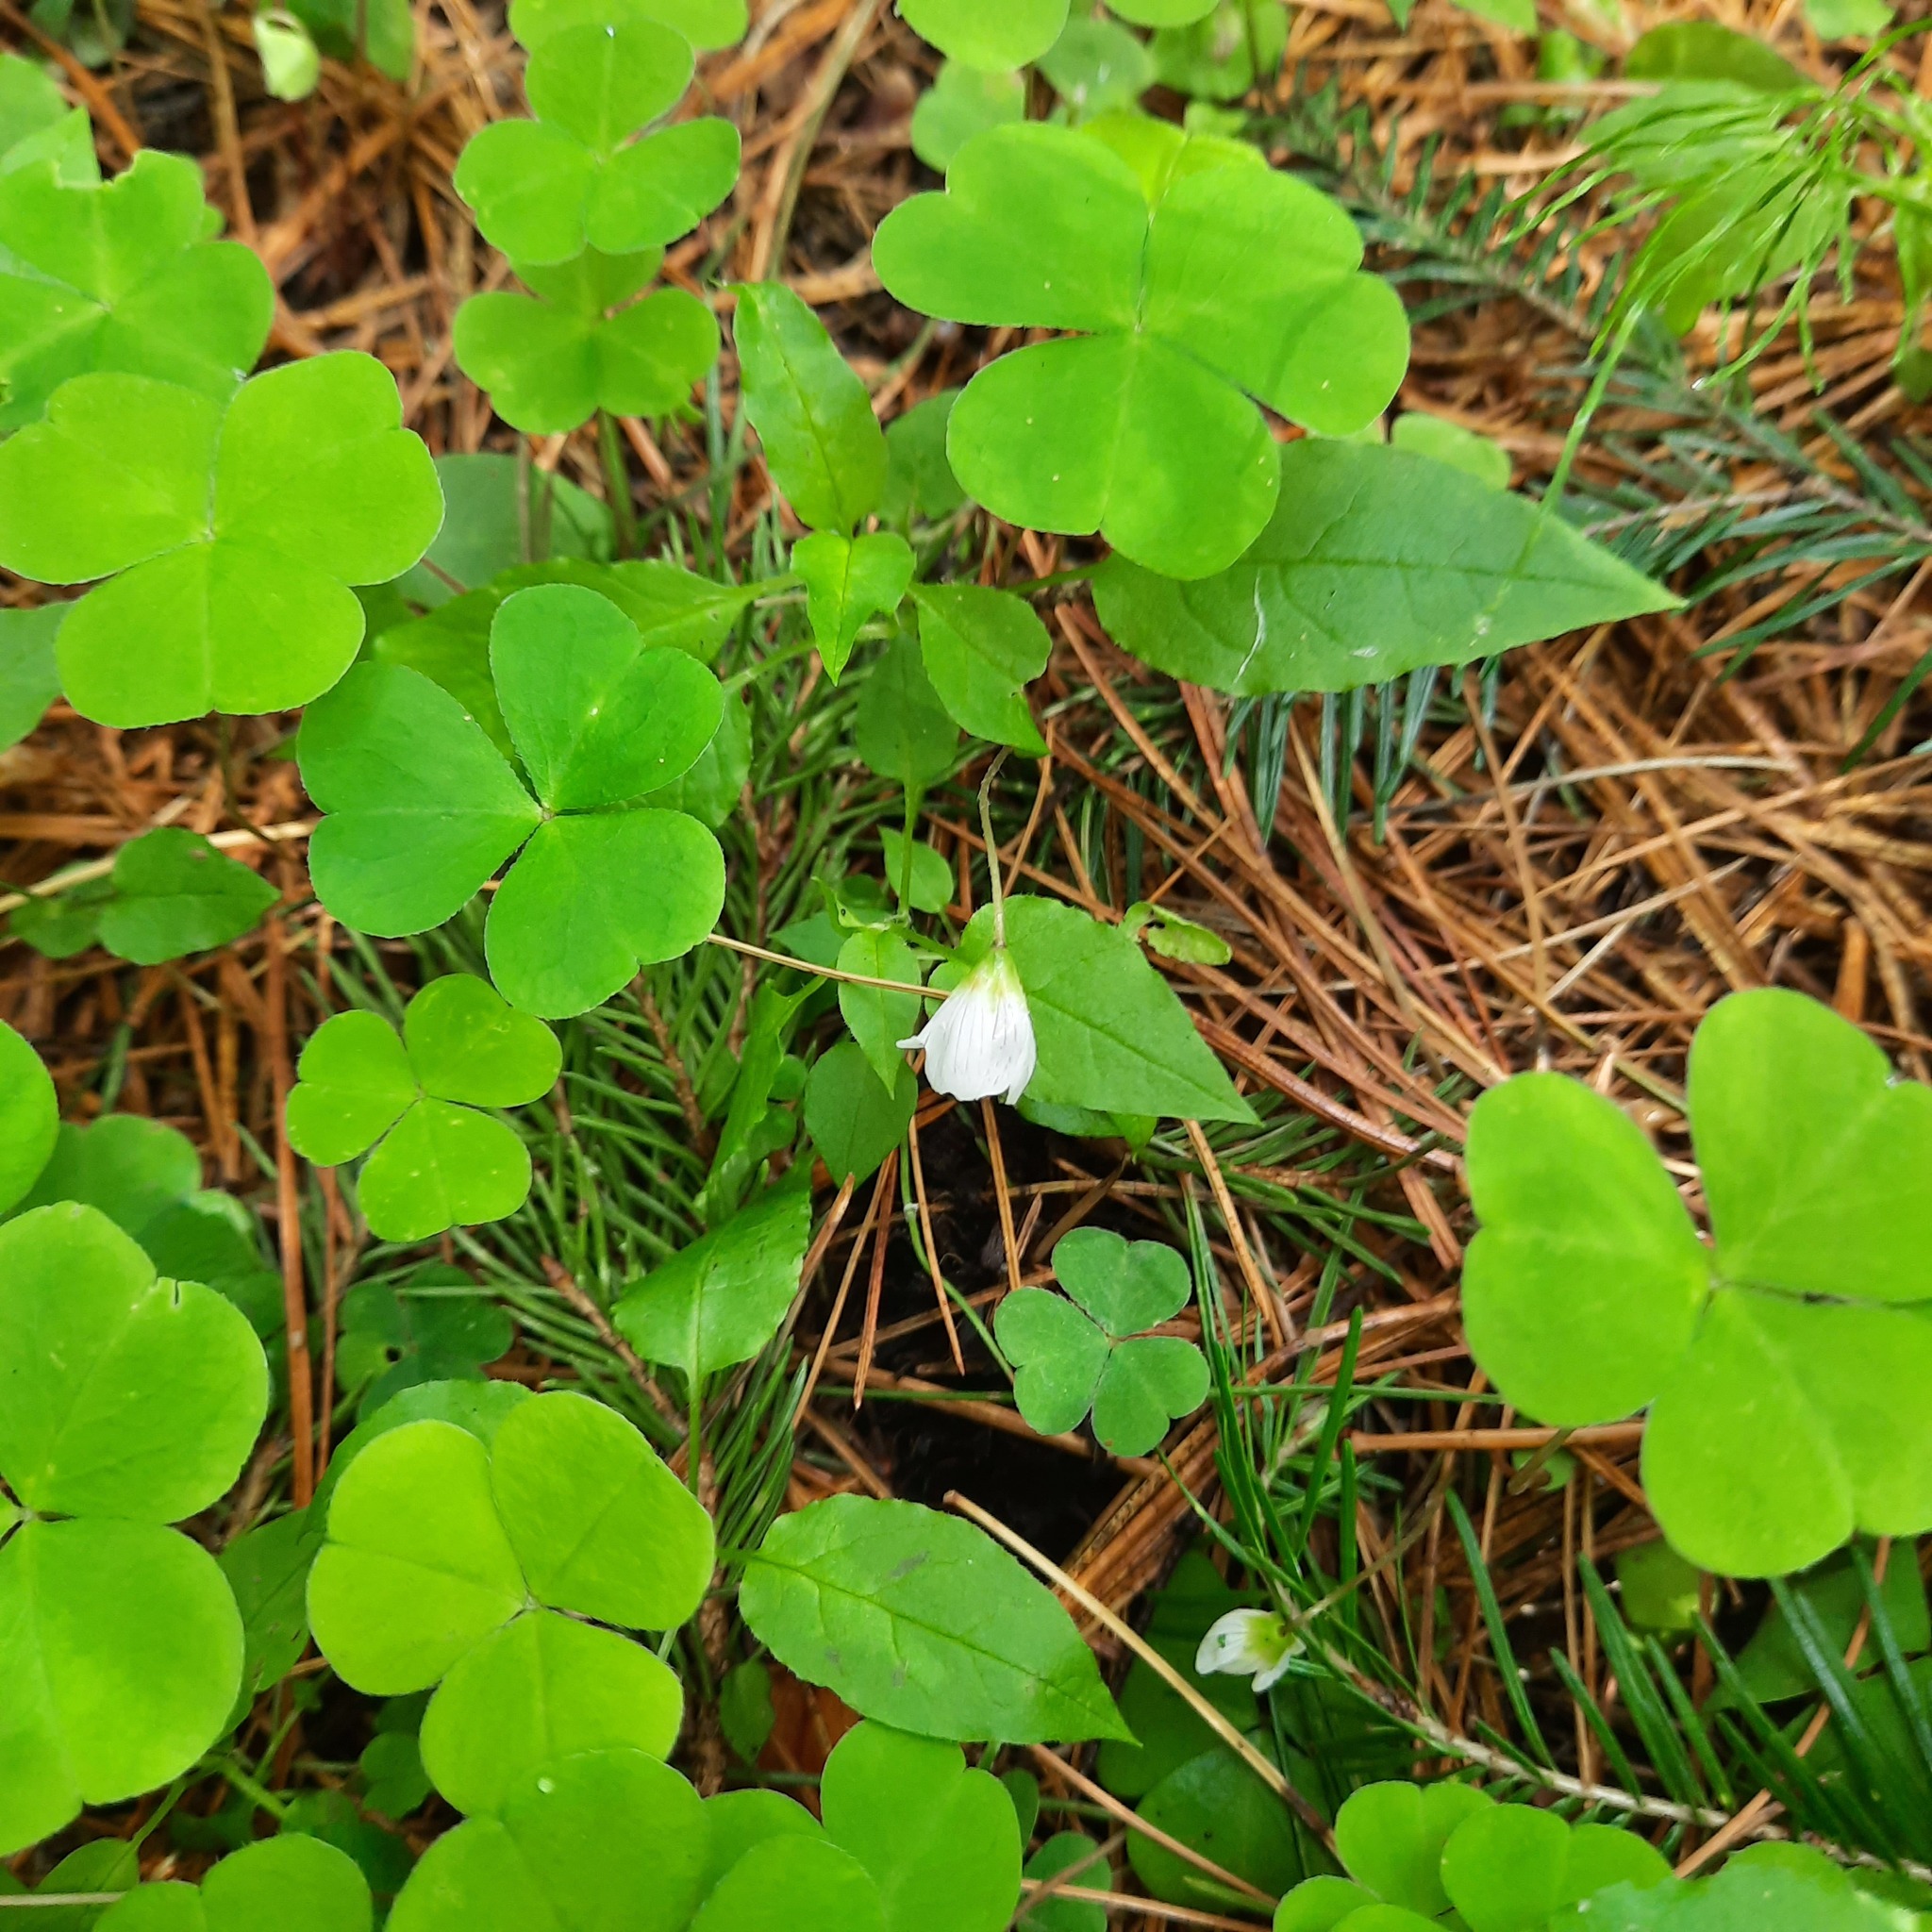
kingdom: Plantae
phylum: Tracheophyta
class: Magnoliopsida
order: Oxalidales
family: Oxalidaceae
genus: Oxalis
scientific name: Oxalis acetosella
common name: Wood-sorrel
